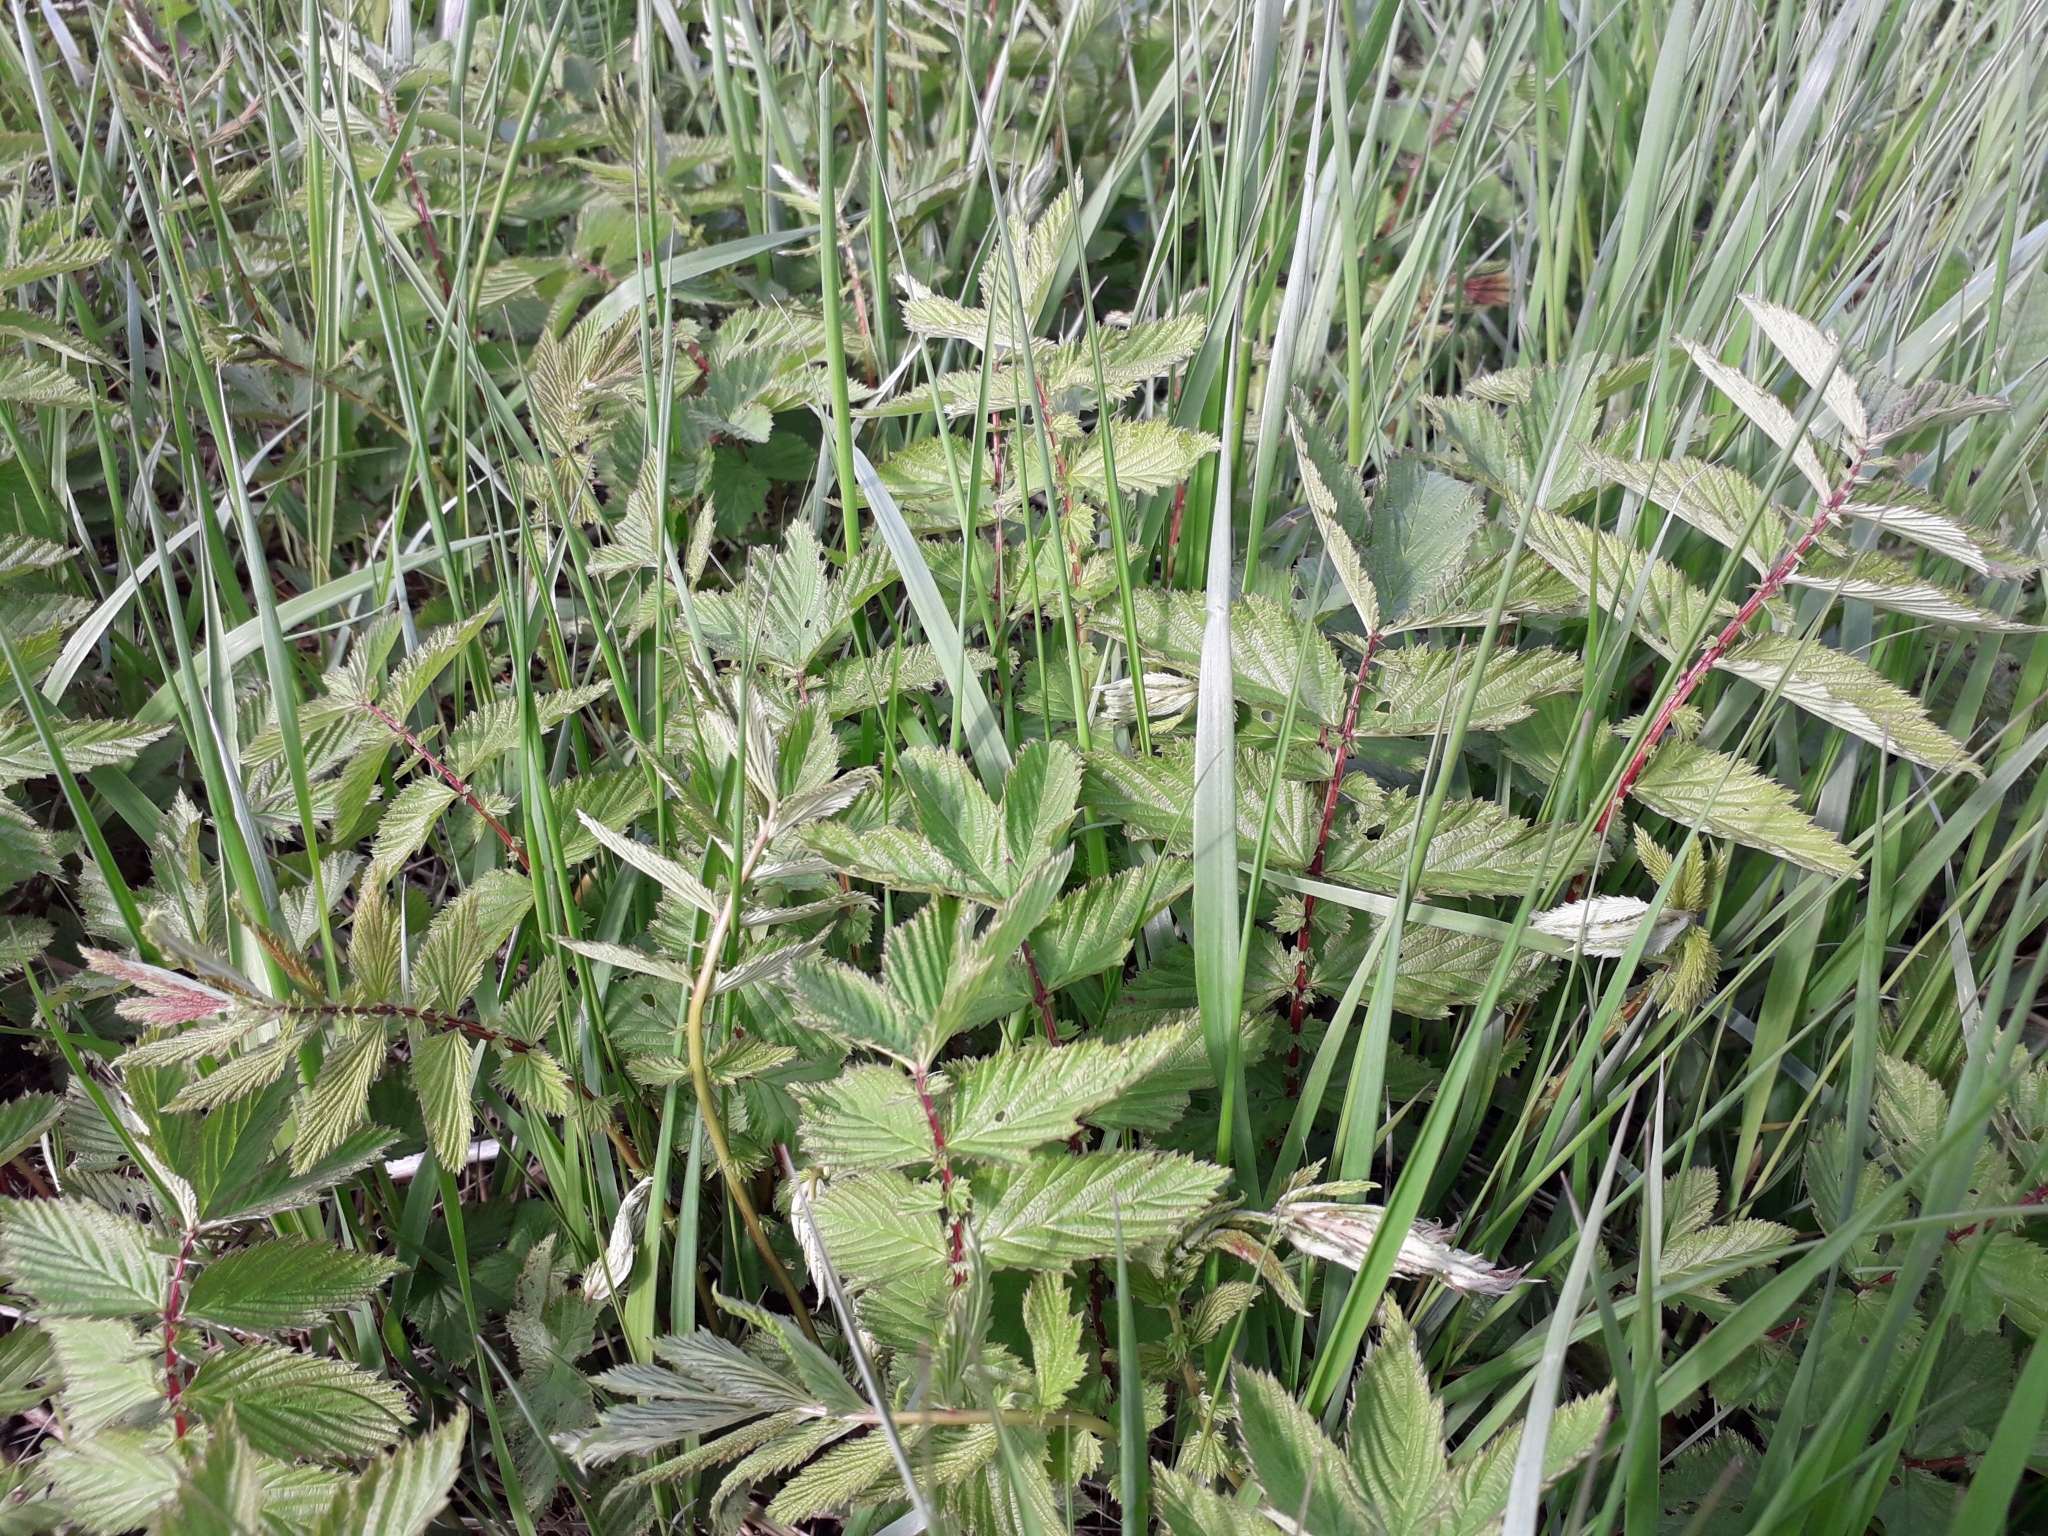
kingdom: Plantae
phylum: Tracheophyta
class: Magnoliopsida
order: Rosales
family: Rosaceae
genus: Filipendula
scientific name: Filipendula ulmaria
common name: Meadowsweet
